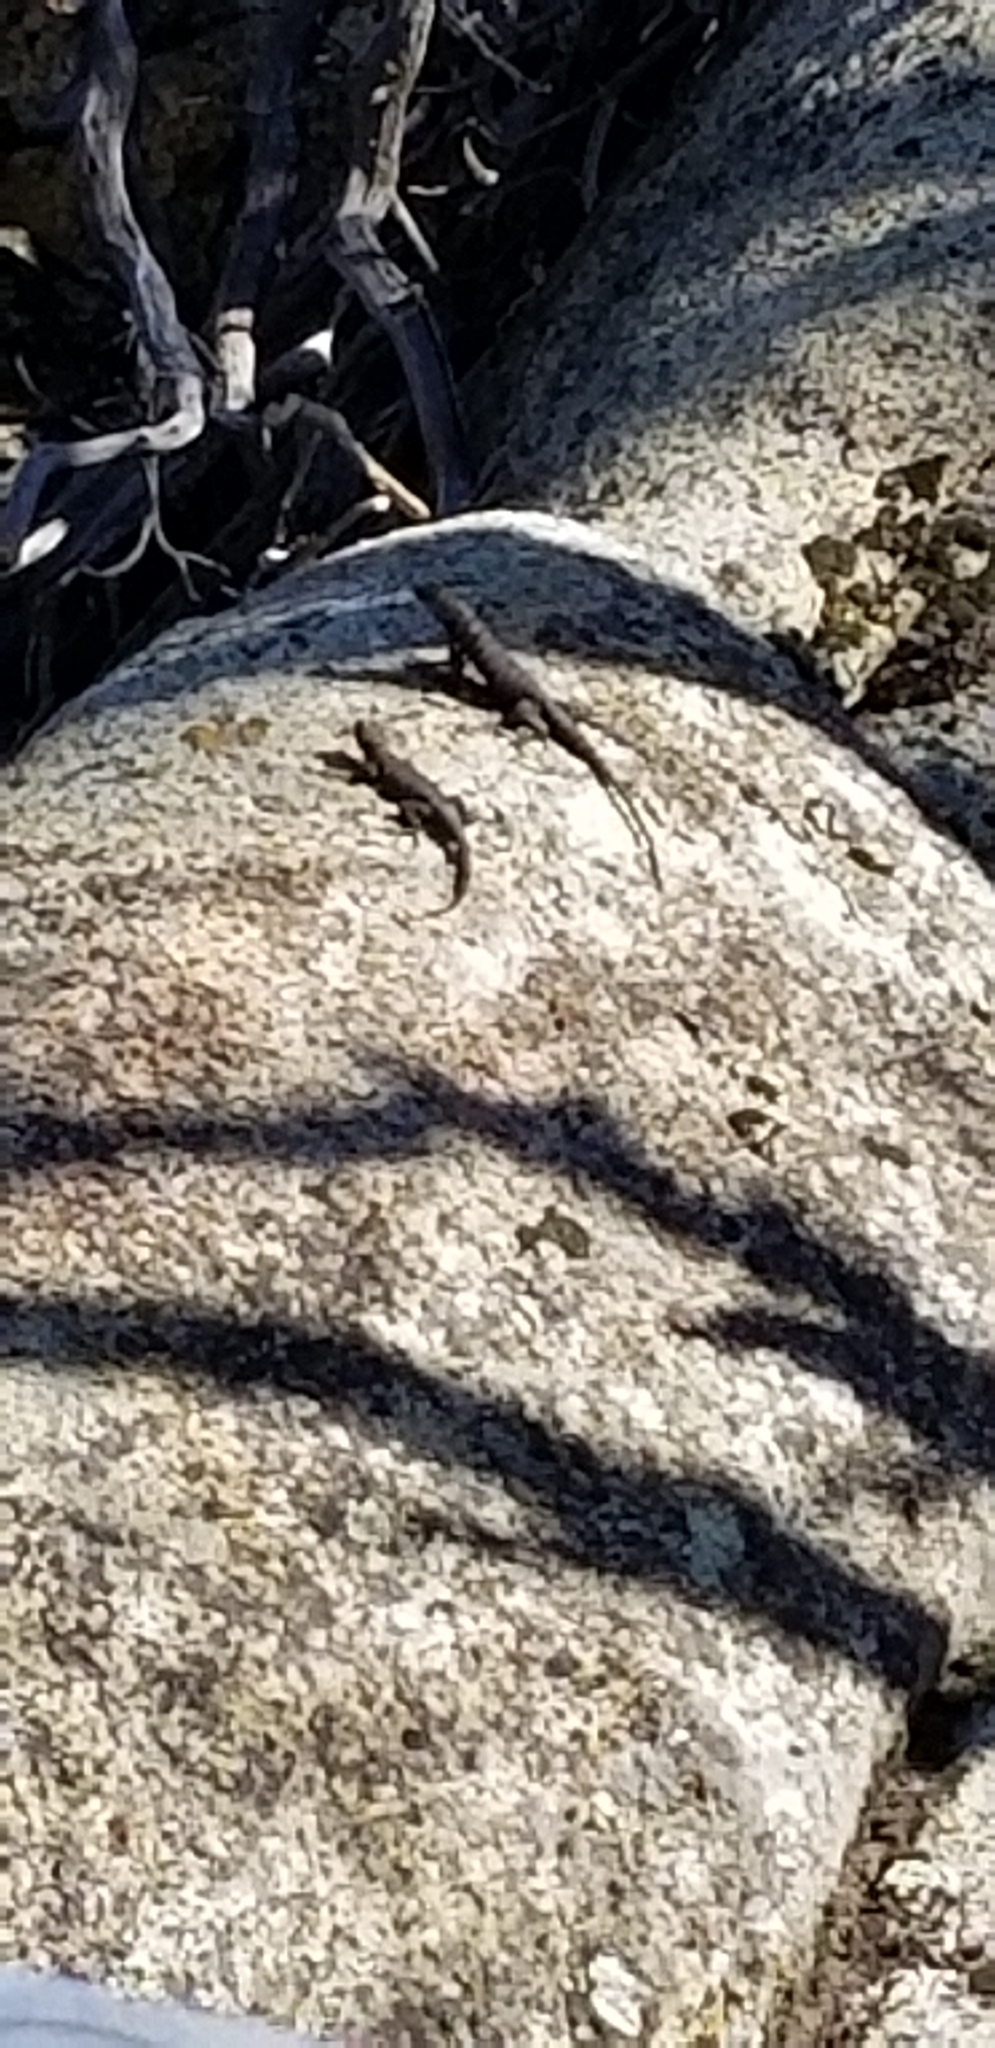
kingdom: Animalia
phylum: Chordata
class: Squamata
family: Phrynosomatidae
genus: Sceloporus
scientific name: Sceloporus orcutti
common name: Granite spiny lizard
